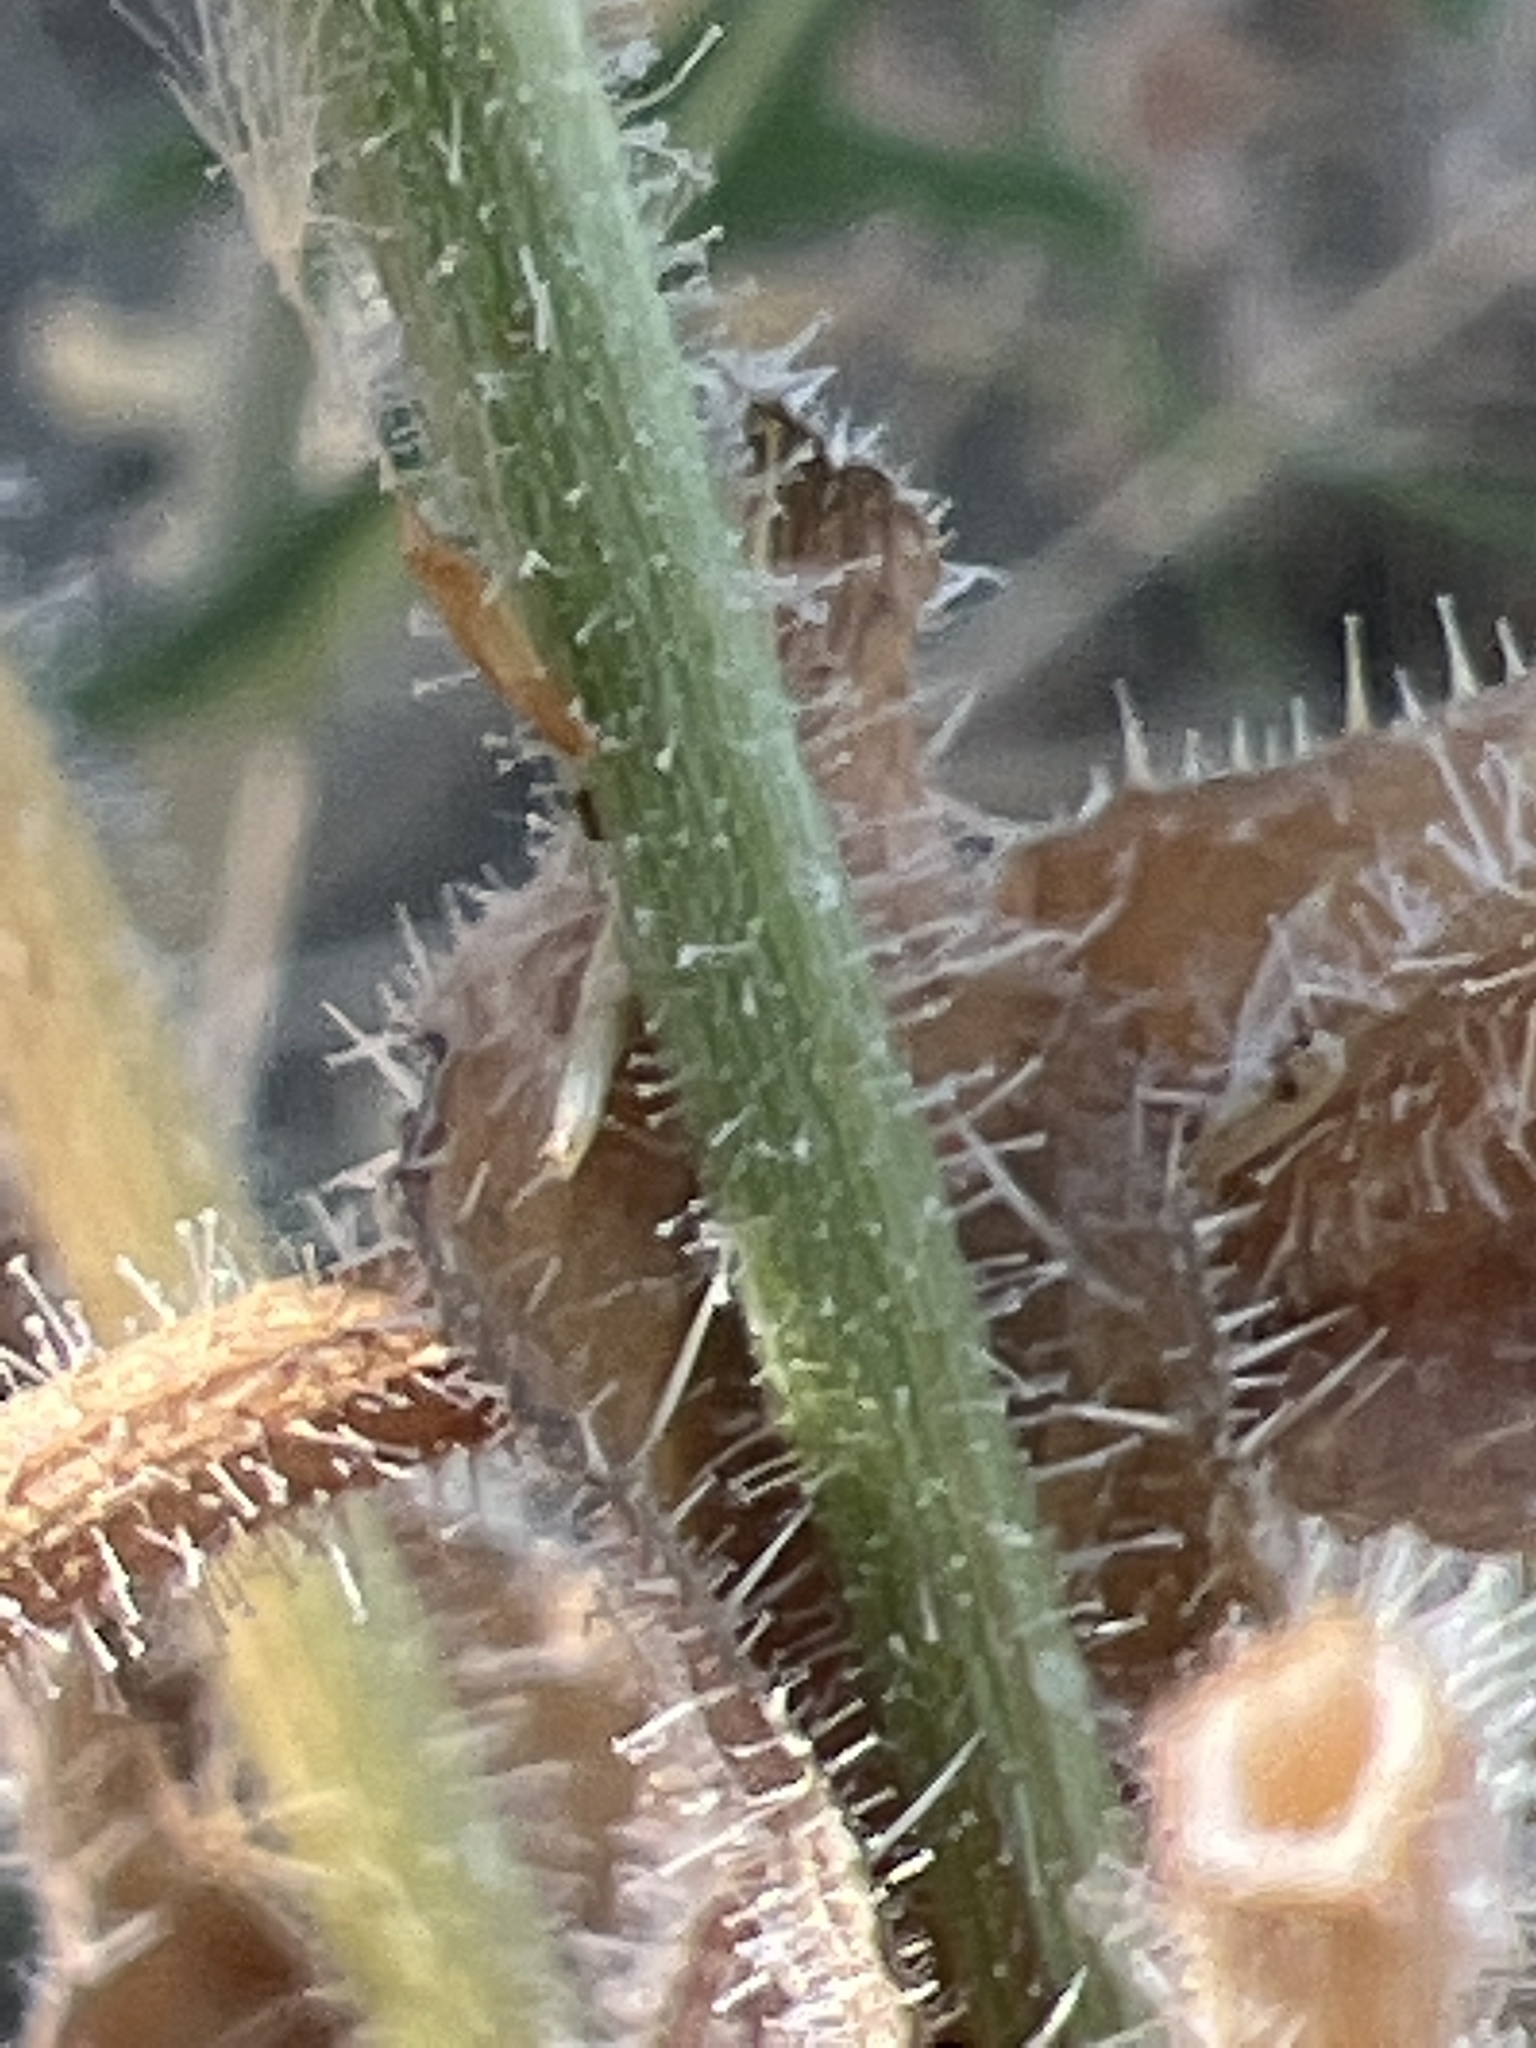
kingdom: Plantae
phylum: Tracheophyta
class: Magnoliopsida
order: Asterales
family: Asteraceae
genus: Helminthotheca
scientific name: Helminthotheca echioides
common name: Ox-tongue
